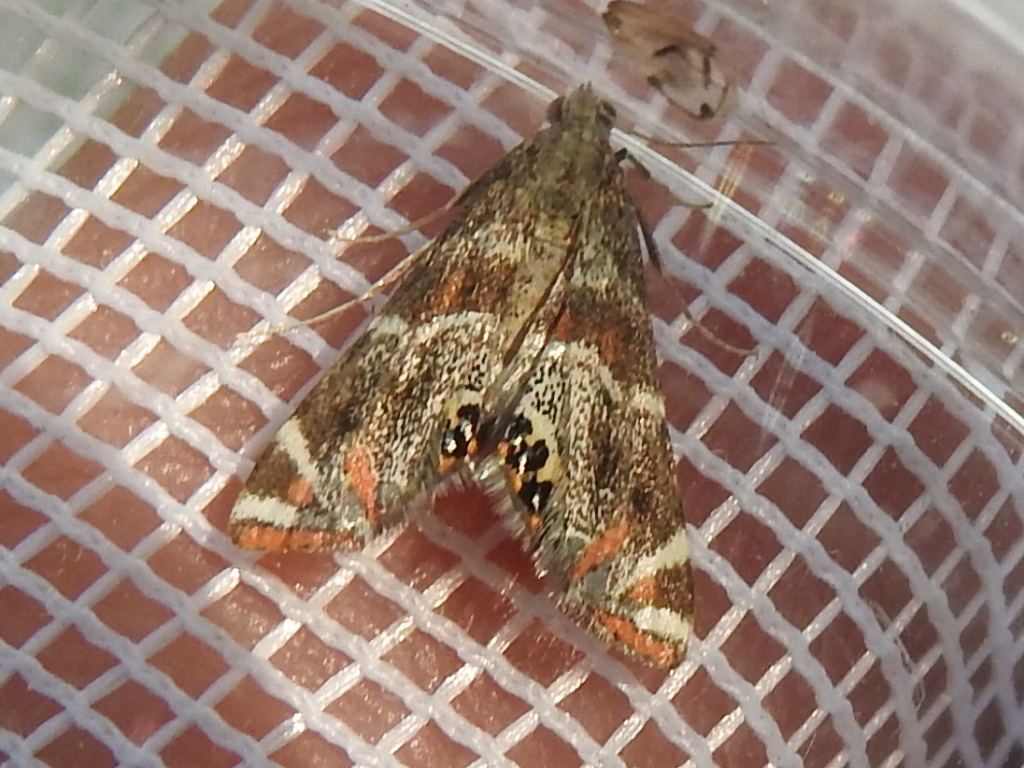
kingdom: Animalia
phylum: Arthropoda
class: Insecta
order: Lepidoptera
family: Crambidae
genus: Petrophila
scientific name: Petrophila jaliscalis
